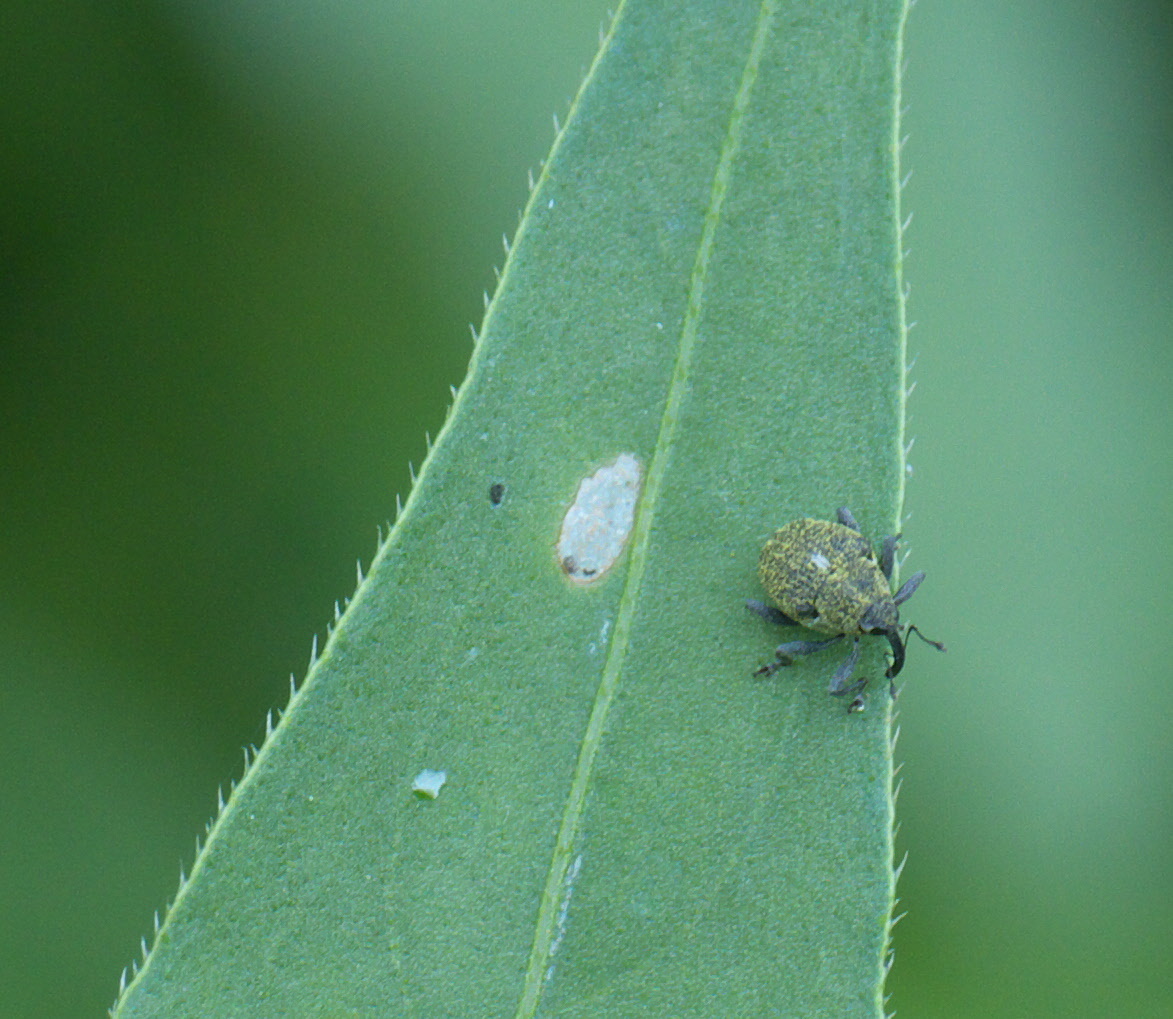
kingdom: Animalia
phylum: Arthropoda
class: Insecta
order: Coleoptera
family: Curculionidae
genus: Homorosoma
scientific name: Homorosoma sulcipenne
